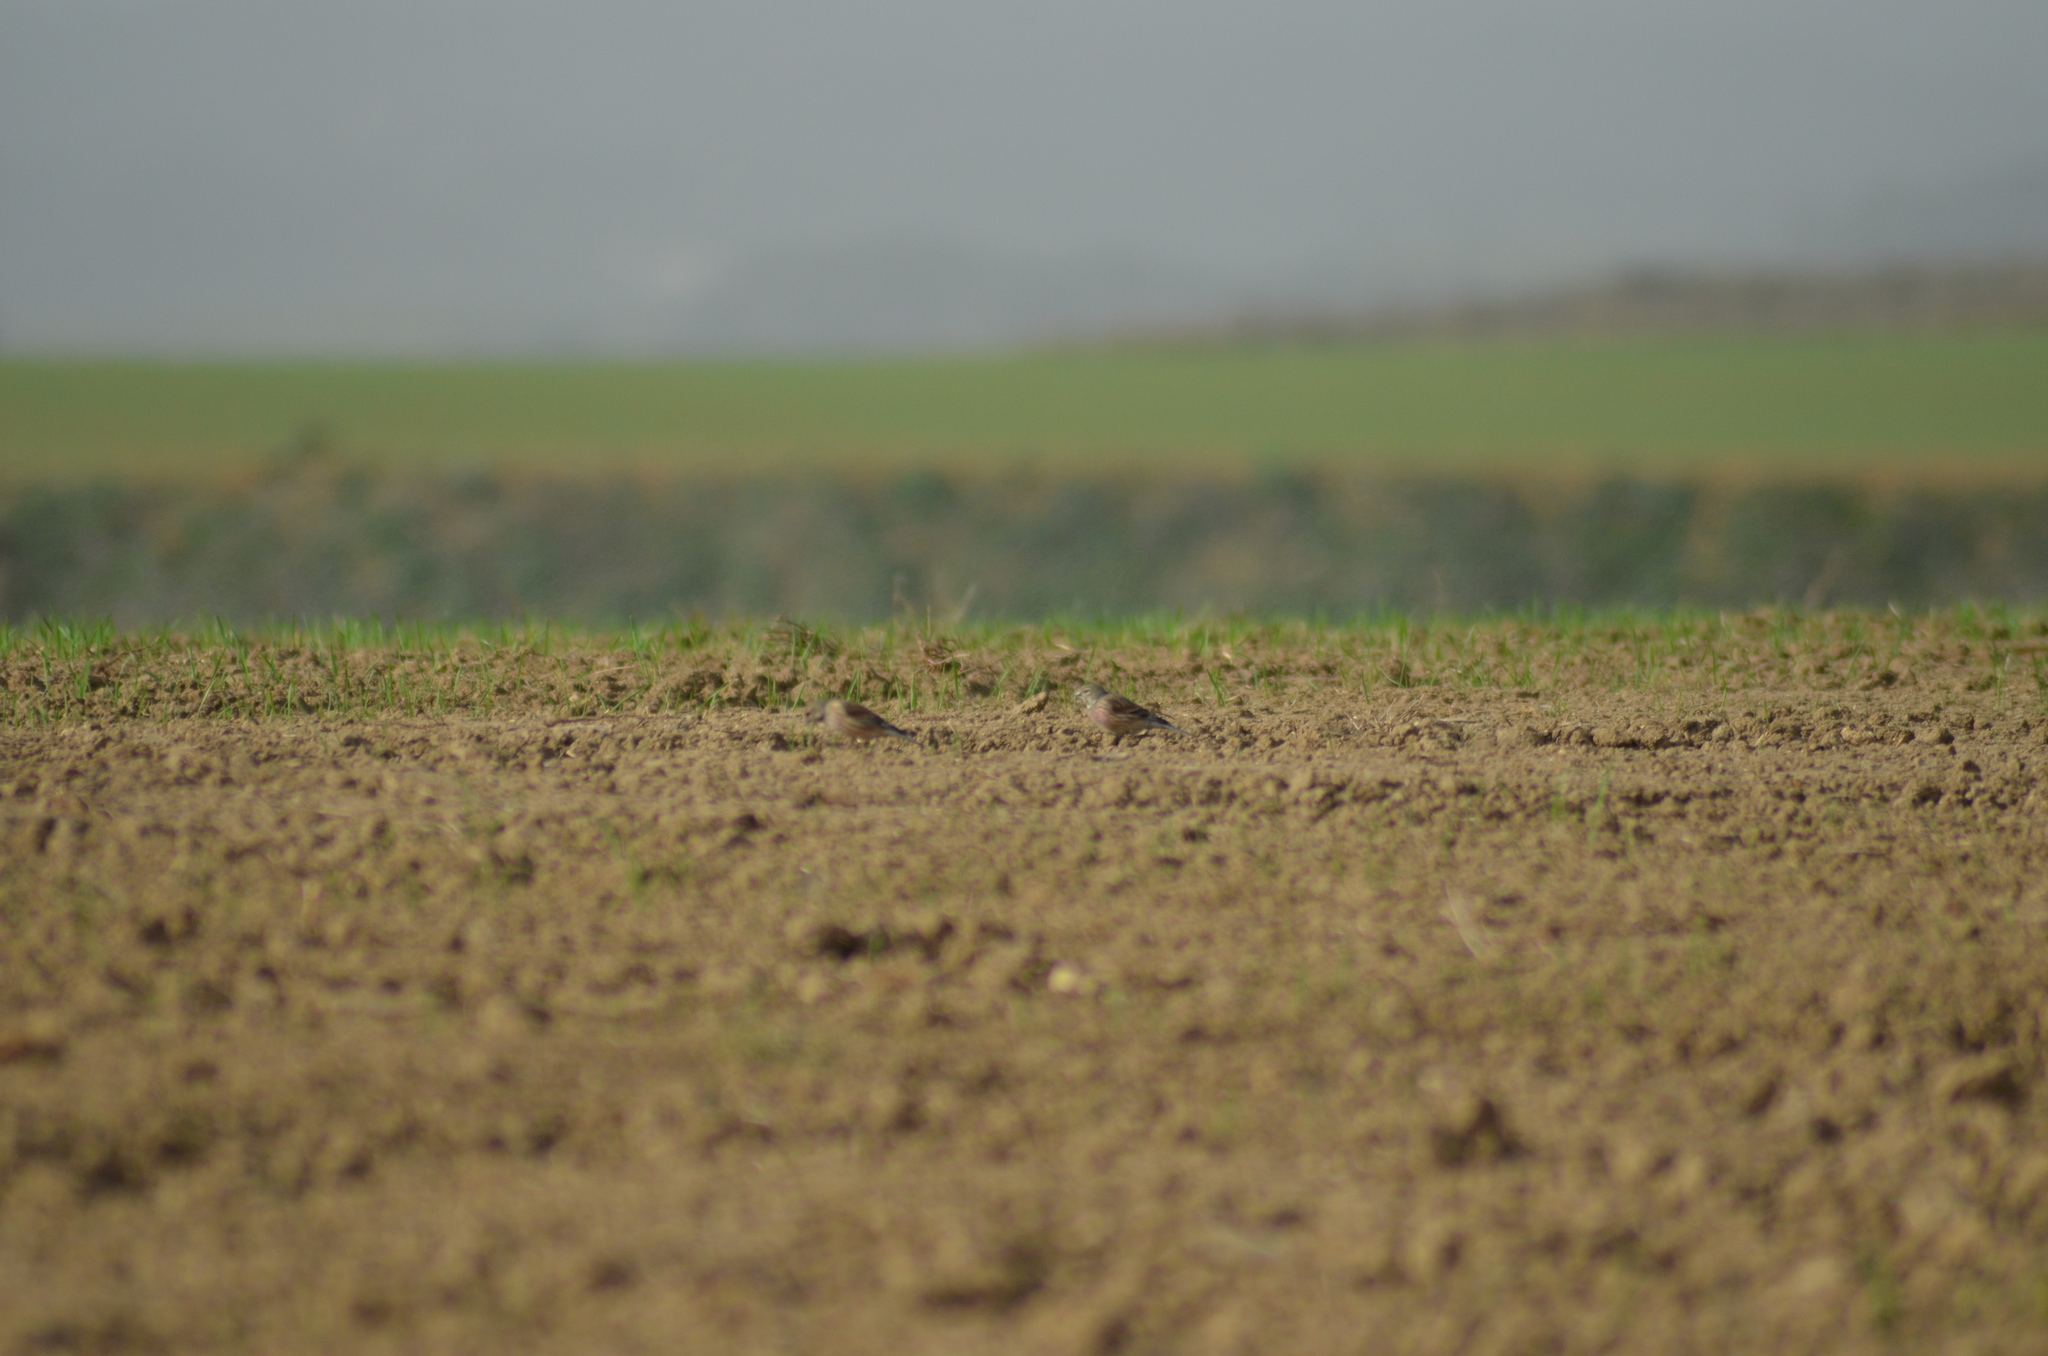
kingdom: Animalia
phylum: Chordata
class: Aves
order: Passeriformes
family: Fringillidae
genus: Linaria
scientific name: Linaria cannabina
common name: Common linnet
